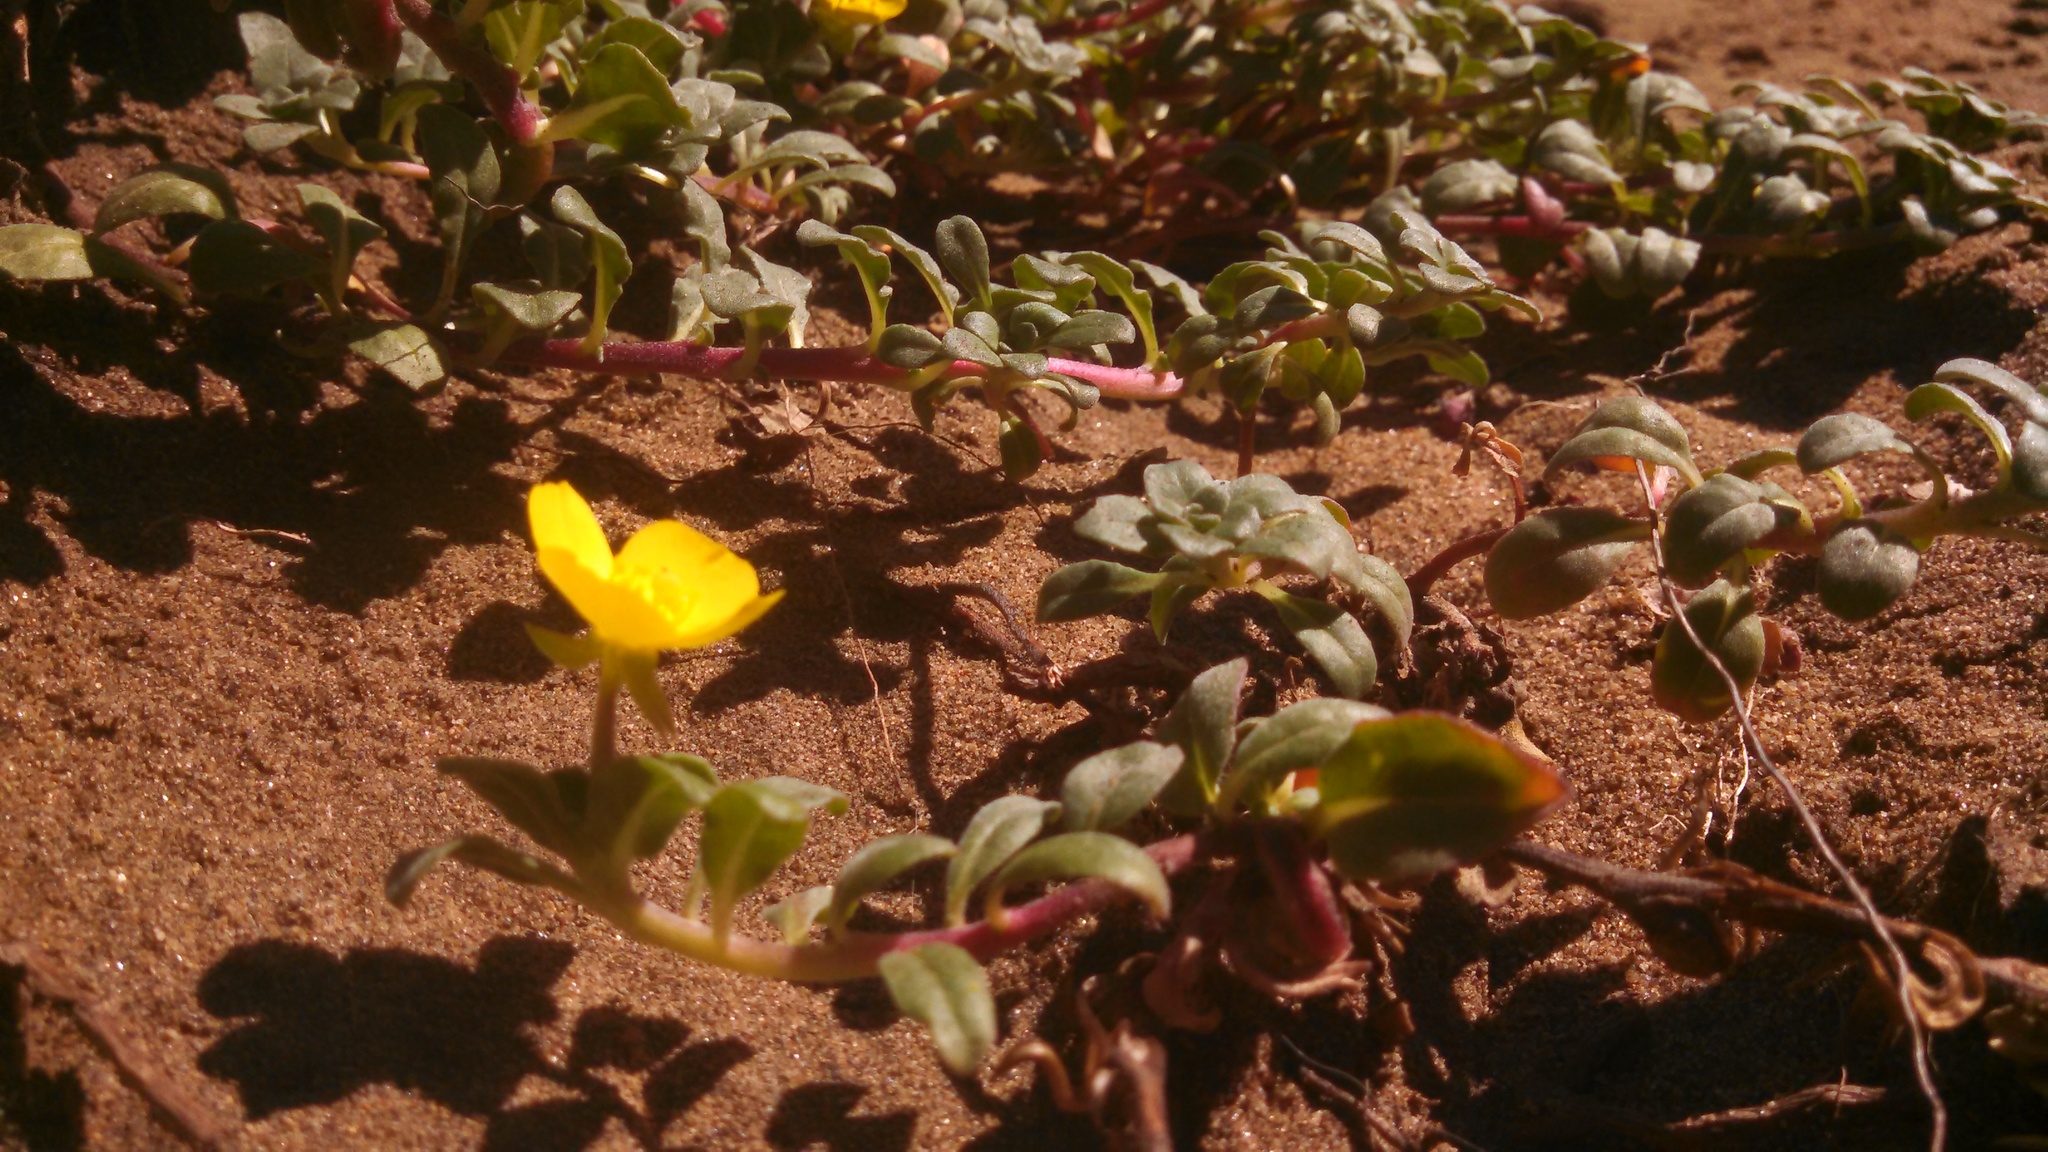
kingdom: Plantae
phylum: Tracheophyta
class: Magnoliopsida
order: Myrtales
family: Onagraceae
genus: Camissoniopsis
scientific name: Camissoniopsis cheiranthifolia
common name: Beach suncup
